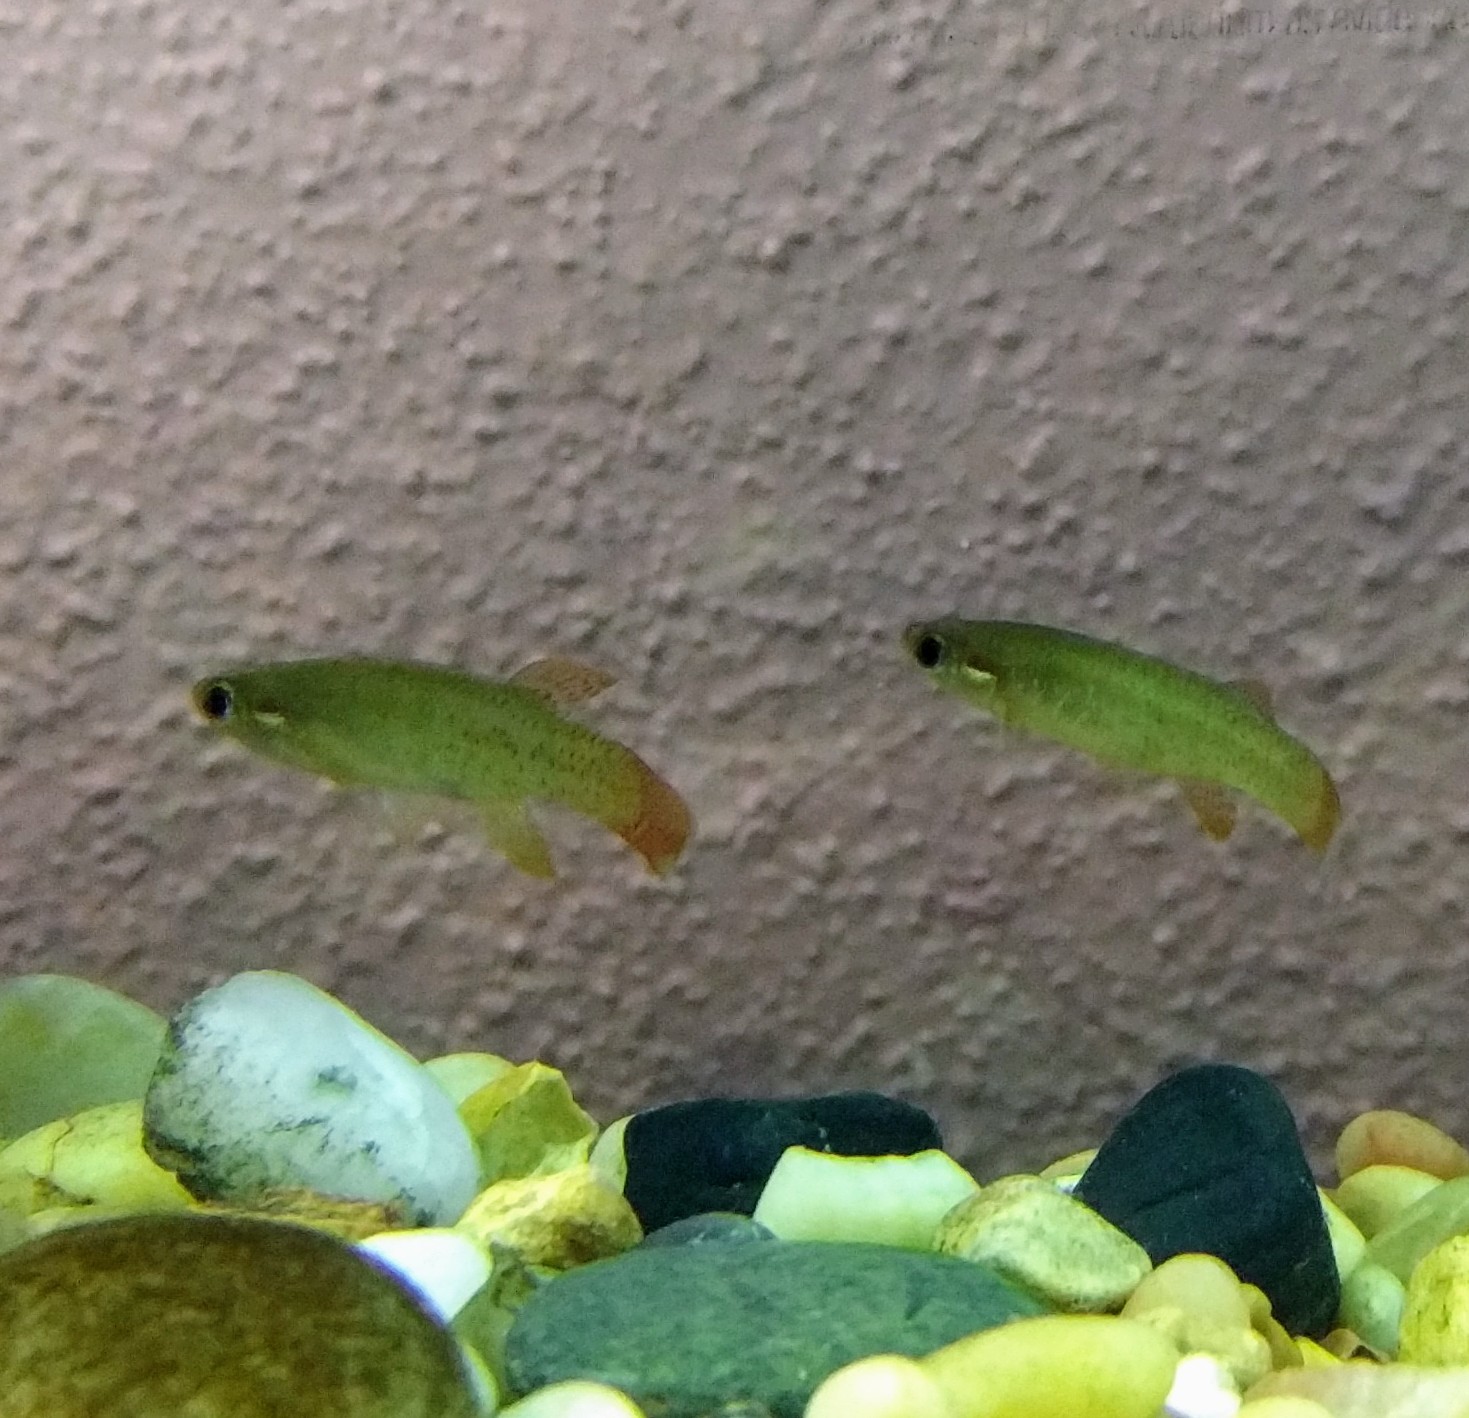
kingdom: Animalia
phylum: Chordata
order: Cyprinodontiformes
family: Fundulidae
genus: Fundulus
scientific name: Fundulus chrysotus
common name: Golden topminnow
